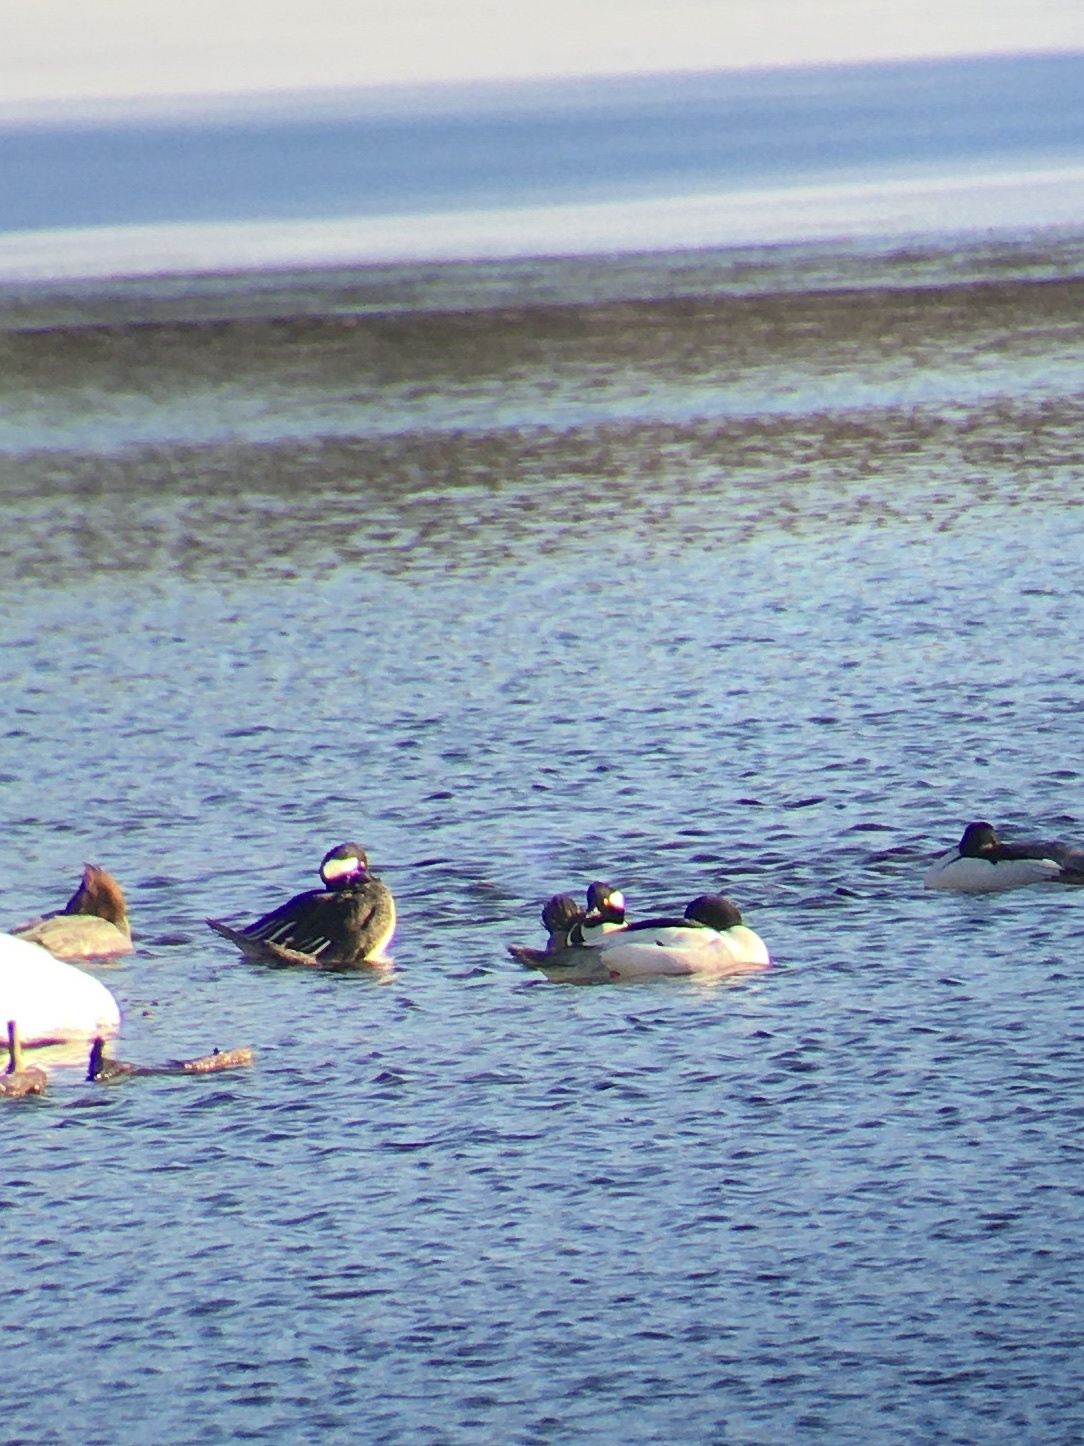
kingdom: Animalia
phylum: Chordata
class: Aves
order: Anseriformes
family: Anatidae
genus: Mergus
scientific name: Mergus merganser
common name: Common merganser
